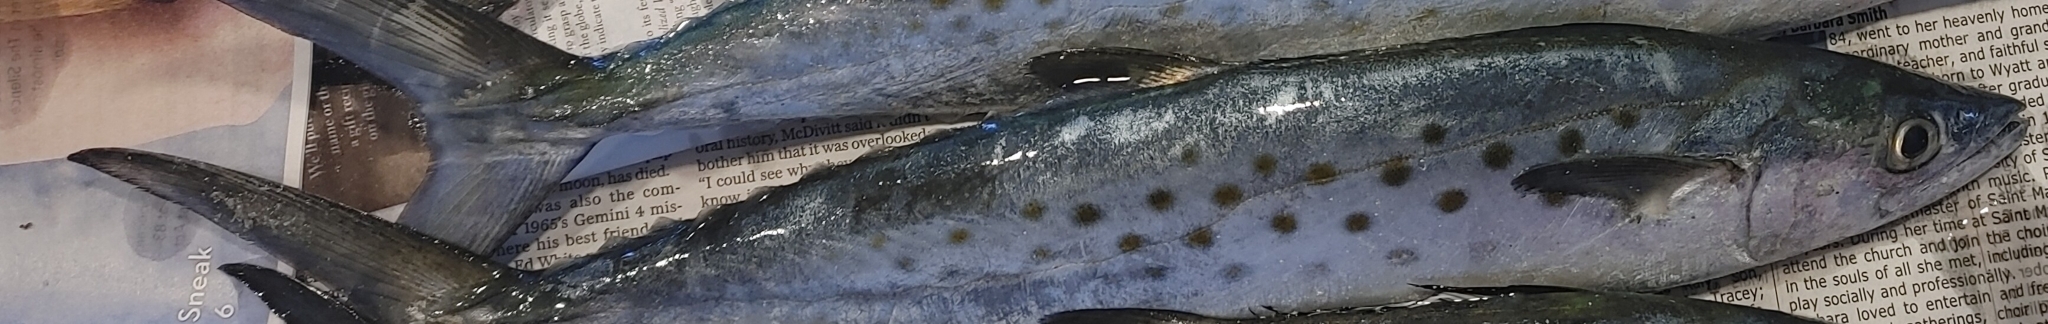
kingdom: Animalia
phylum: Chordata
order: Perciformes
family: Scombridae
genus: Scomberomorus
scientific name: Scomberomorus maculatus
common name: Spanish mackerel
